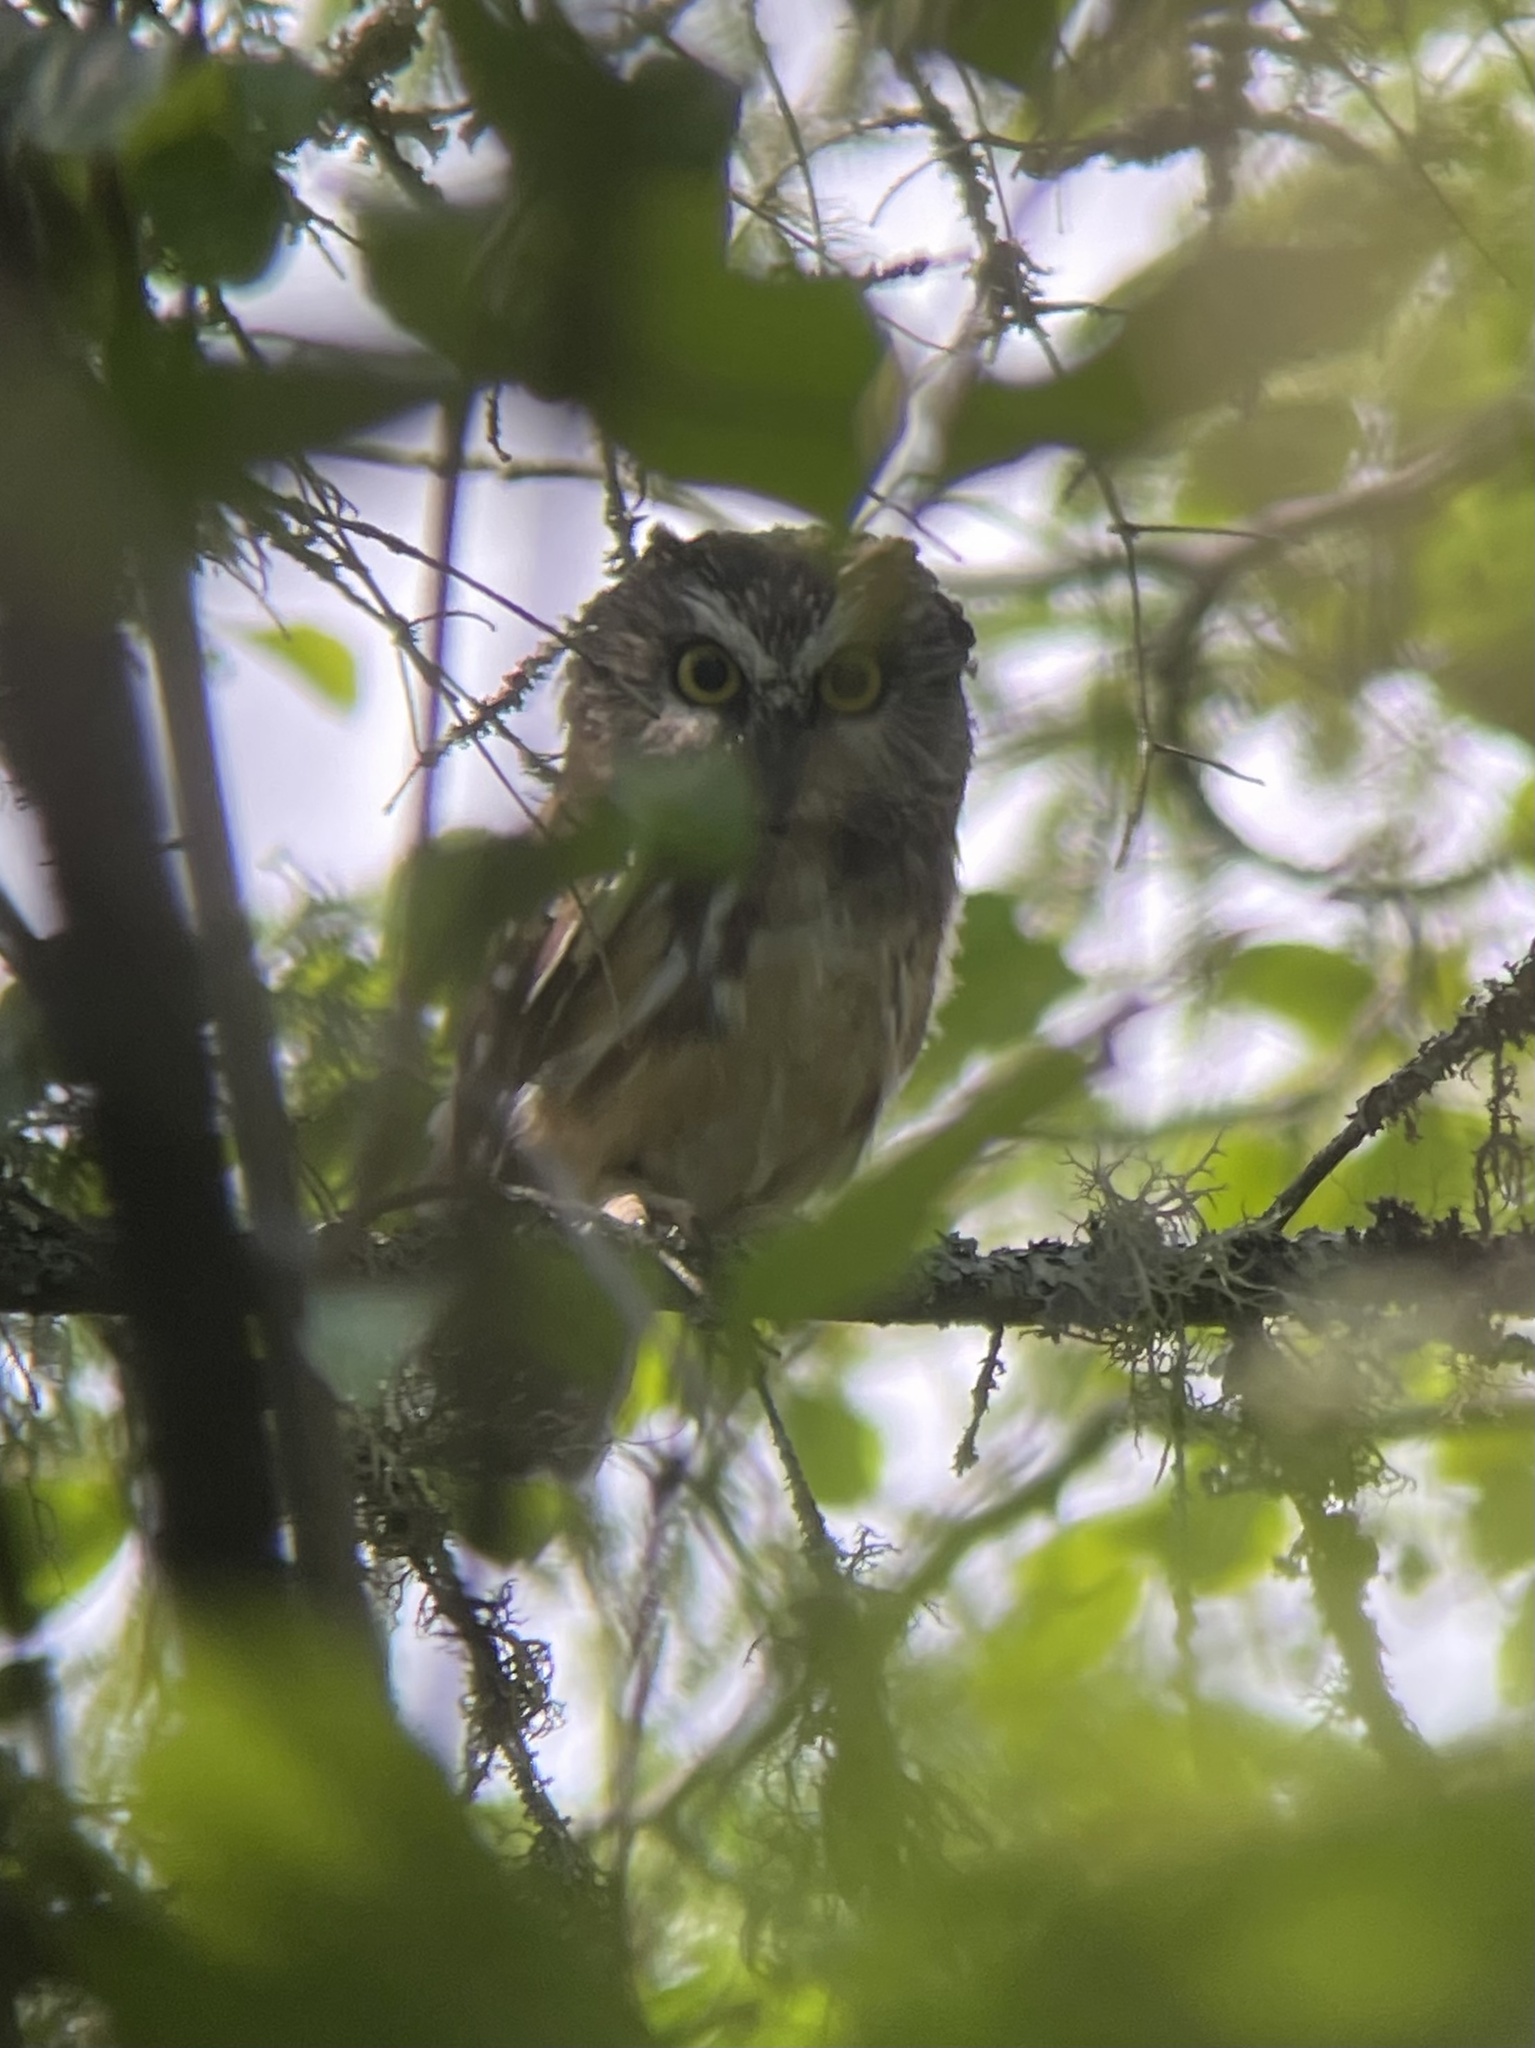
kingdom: Animalia
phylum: Chordata
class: Aves
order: Strigiformes
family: Strigidae
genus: Aegolius
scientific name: Aegolius acadicus
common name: Northern saw-whet owl
